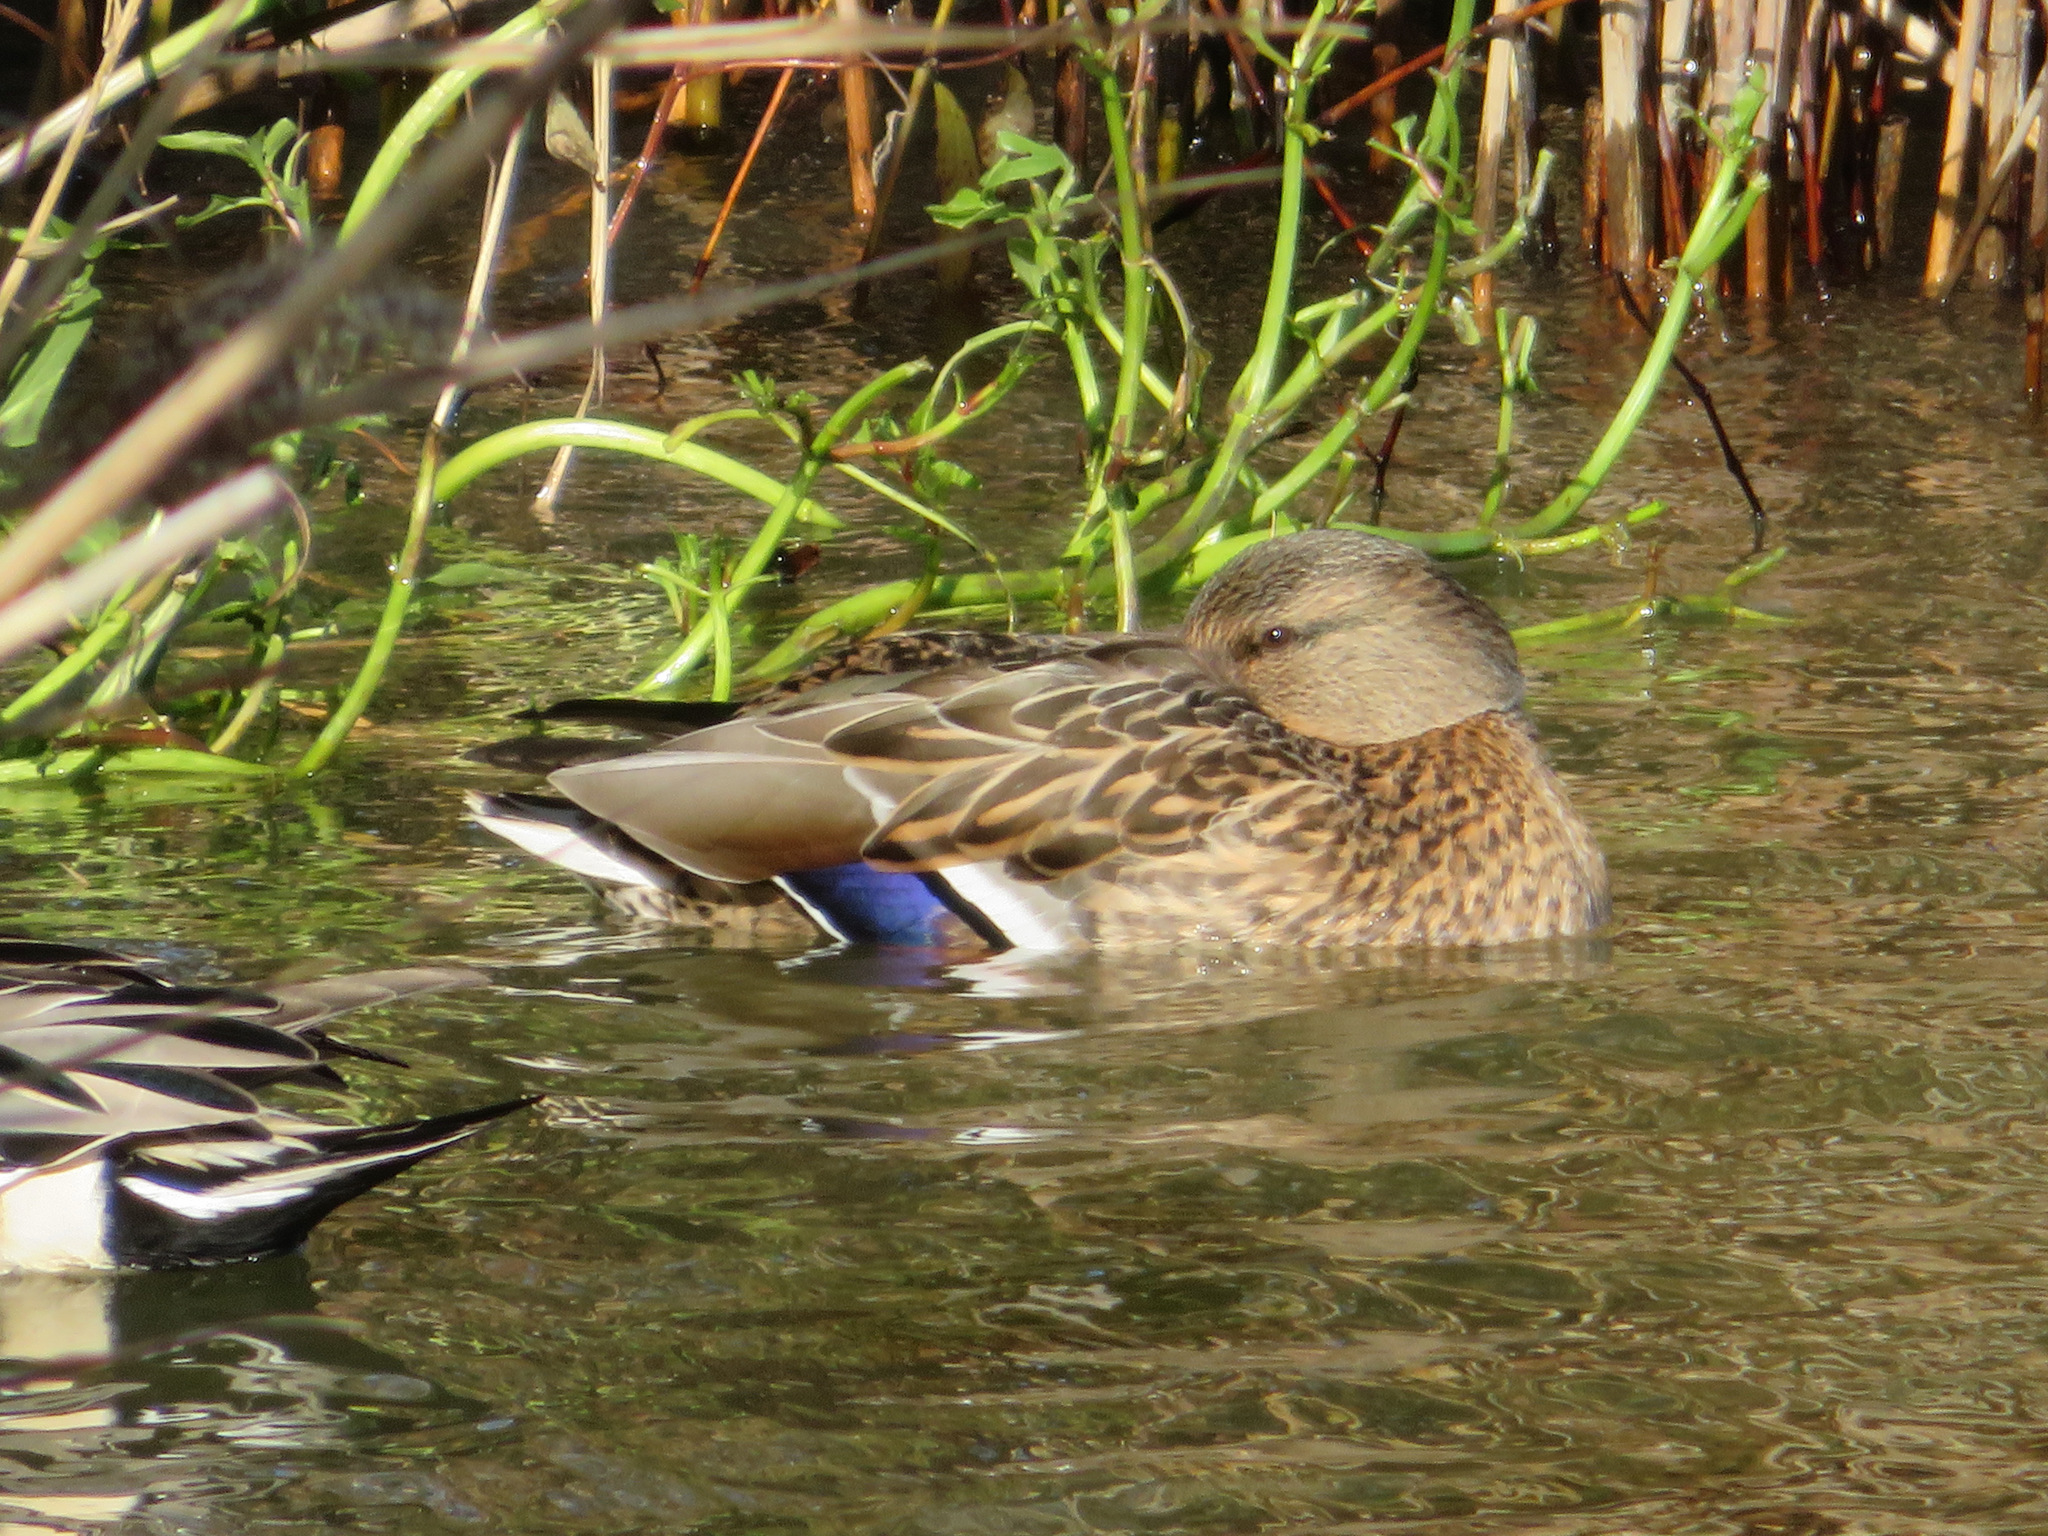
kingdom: Animalia
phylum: Chordata
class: Aves
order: Anseriformes
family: Anatidae
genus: Anas
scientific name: Anas platyrhynchos
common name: Mallard
